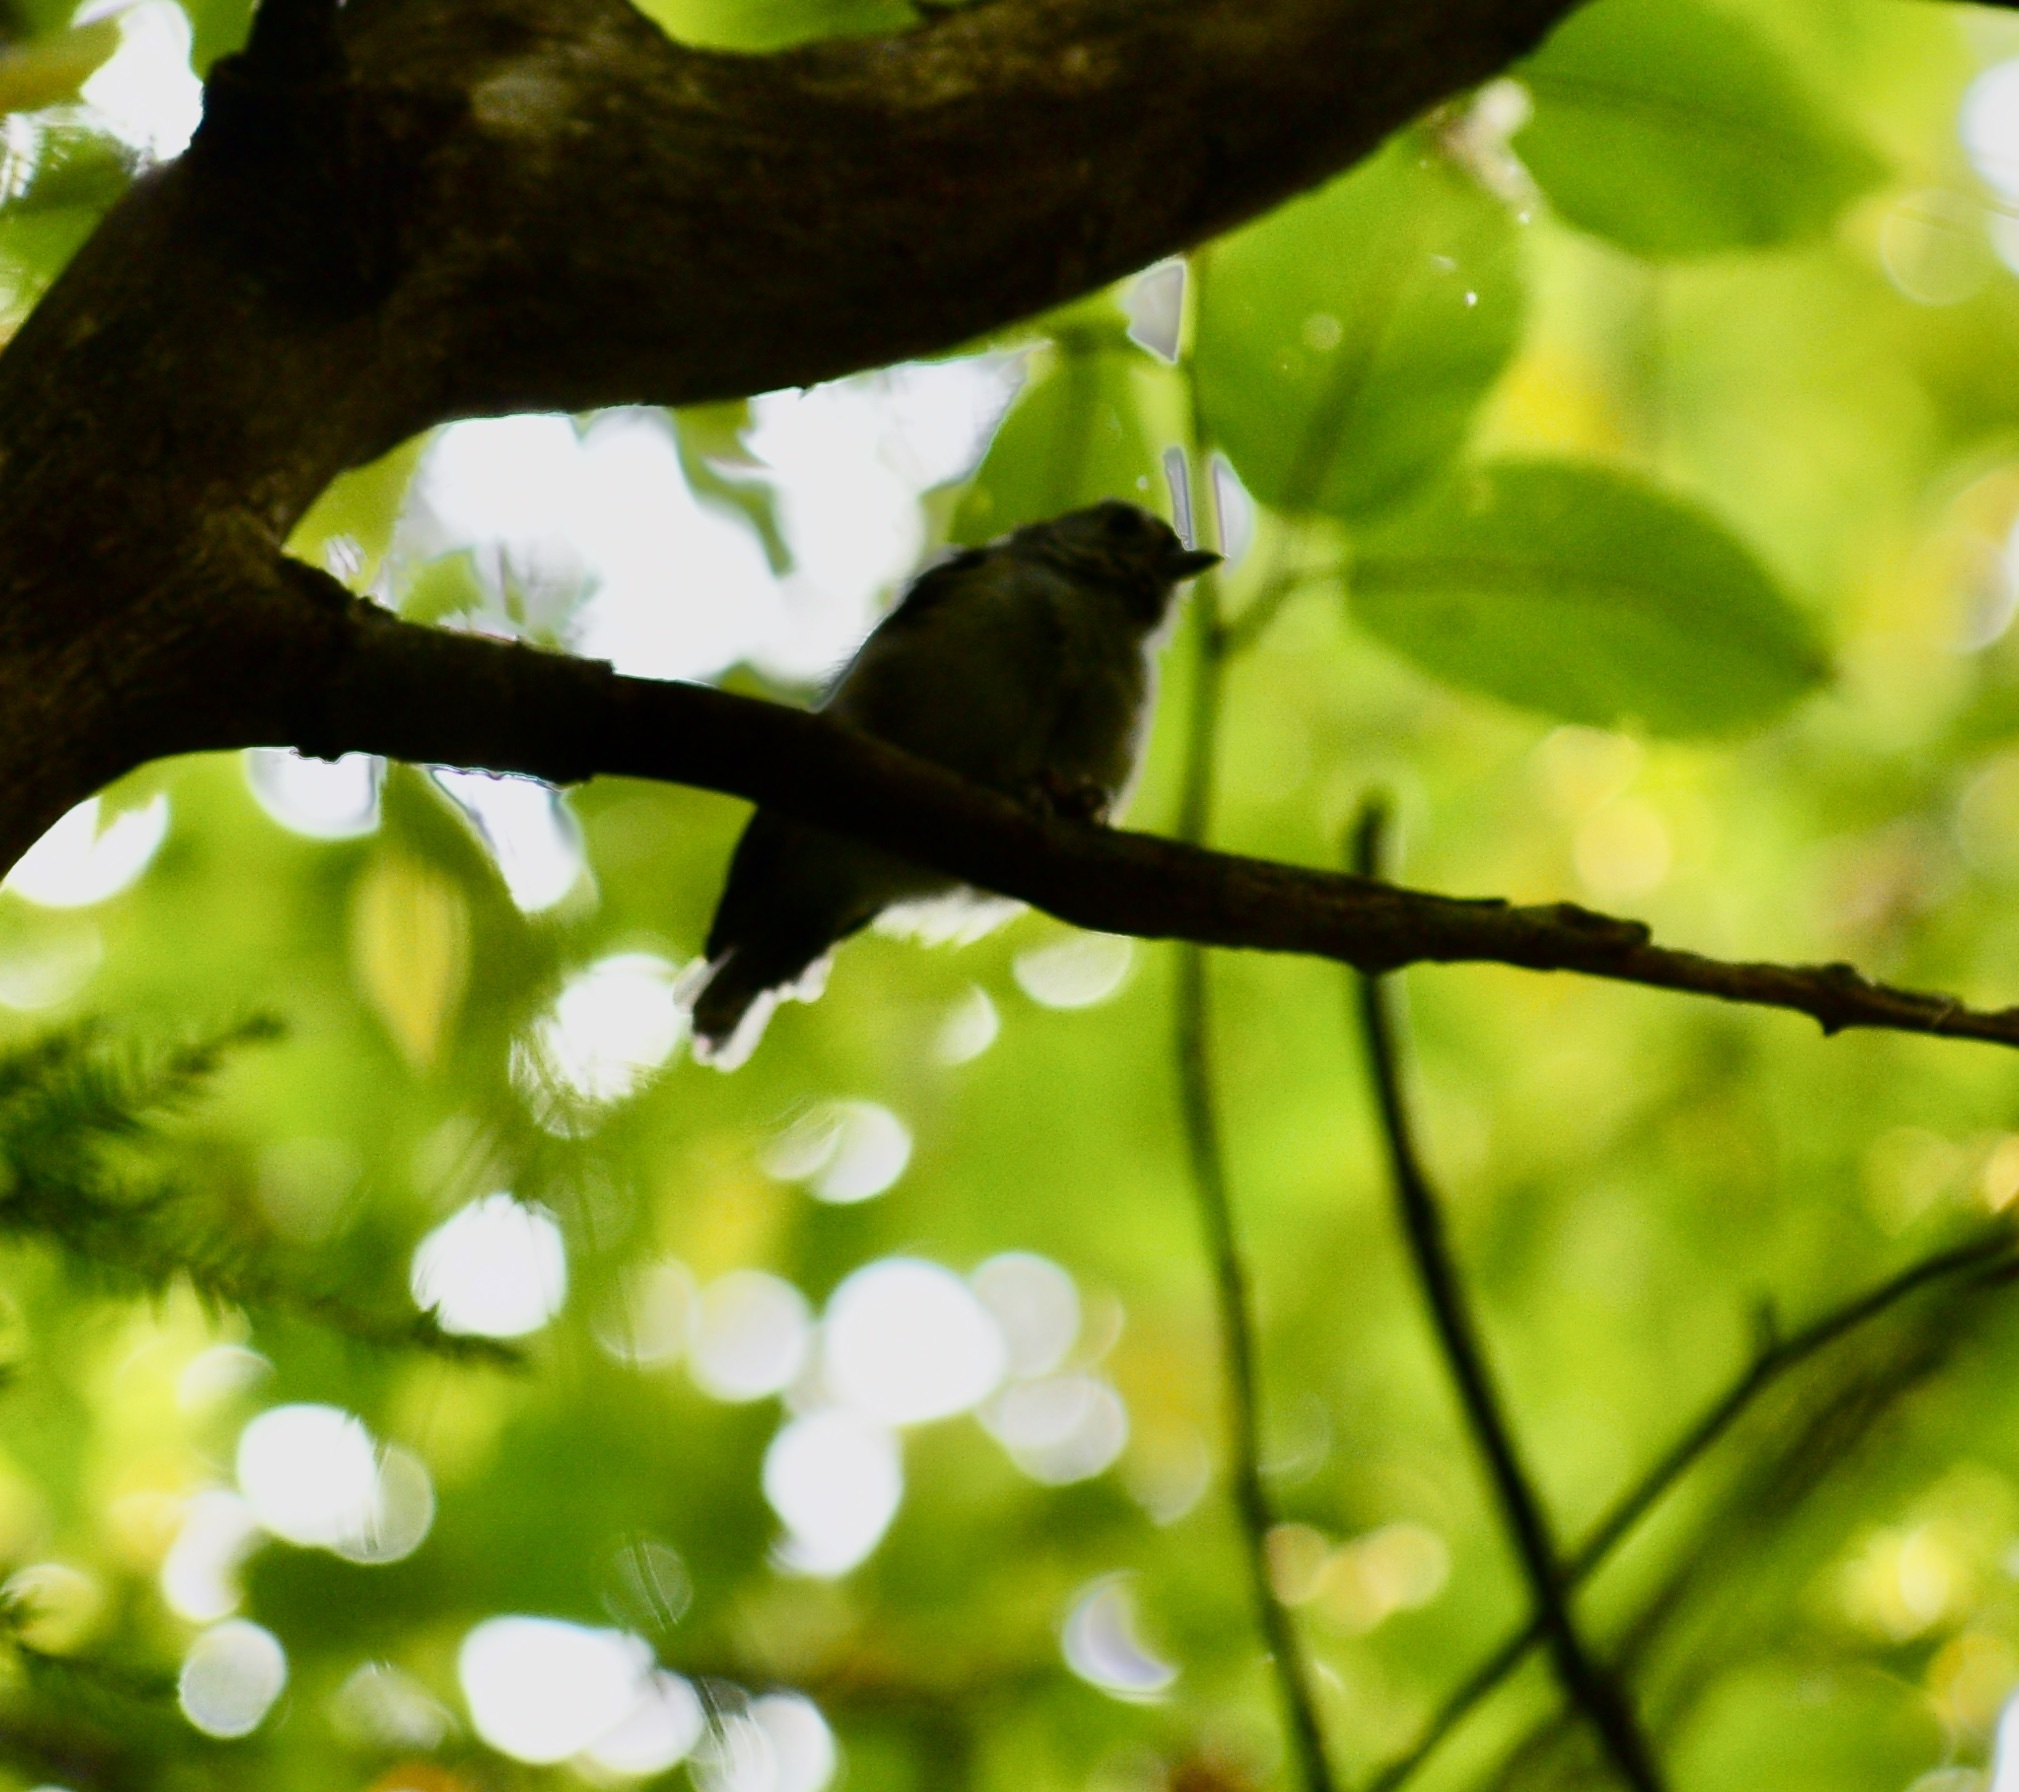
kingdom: Animalia
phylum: Chordata
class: Aves
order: Passeriformes
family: Paridae
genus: Baeolophus
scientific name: Baeolophus bicolor
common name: Tufted titmouse
